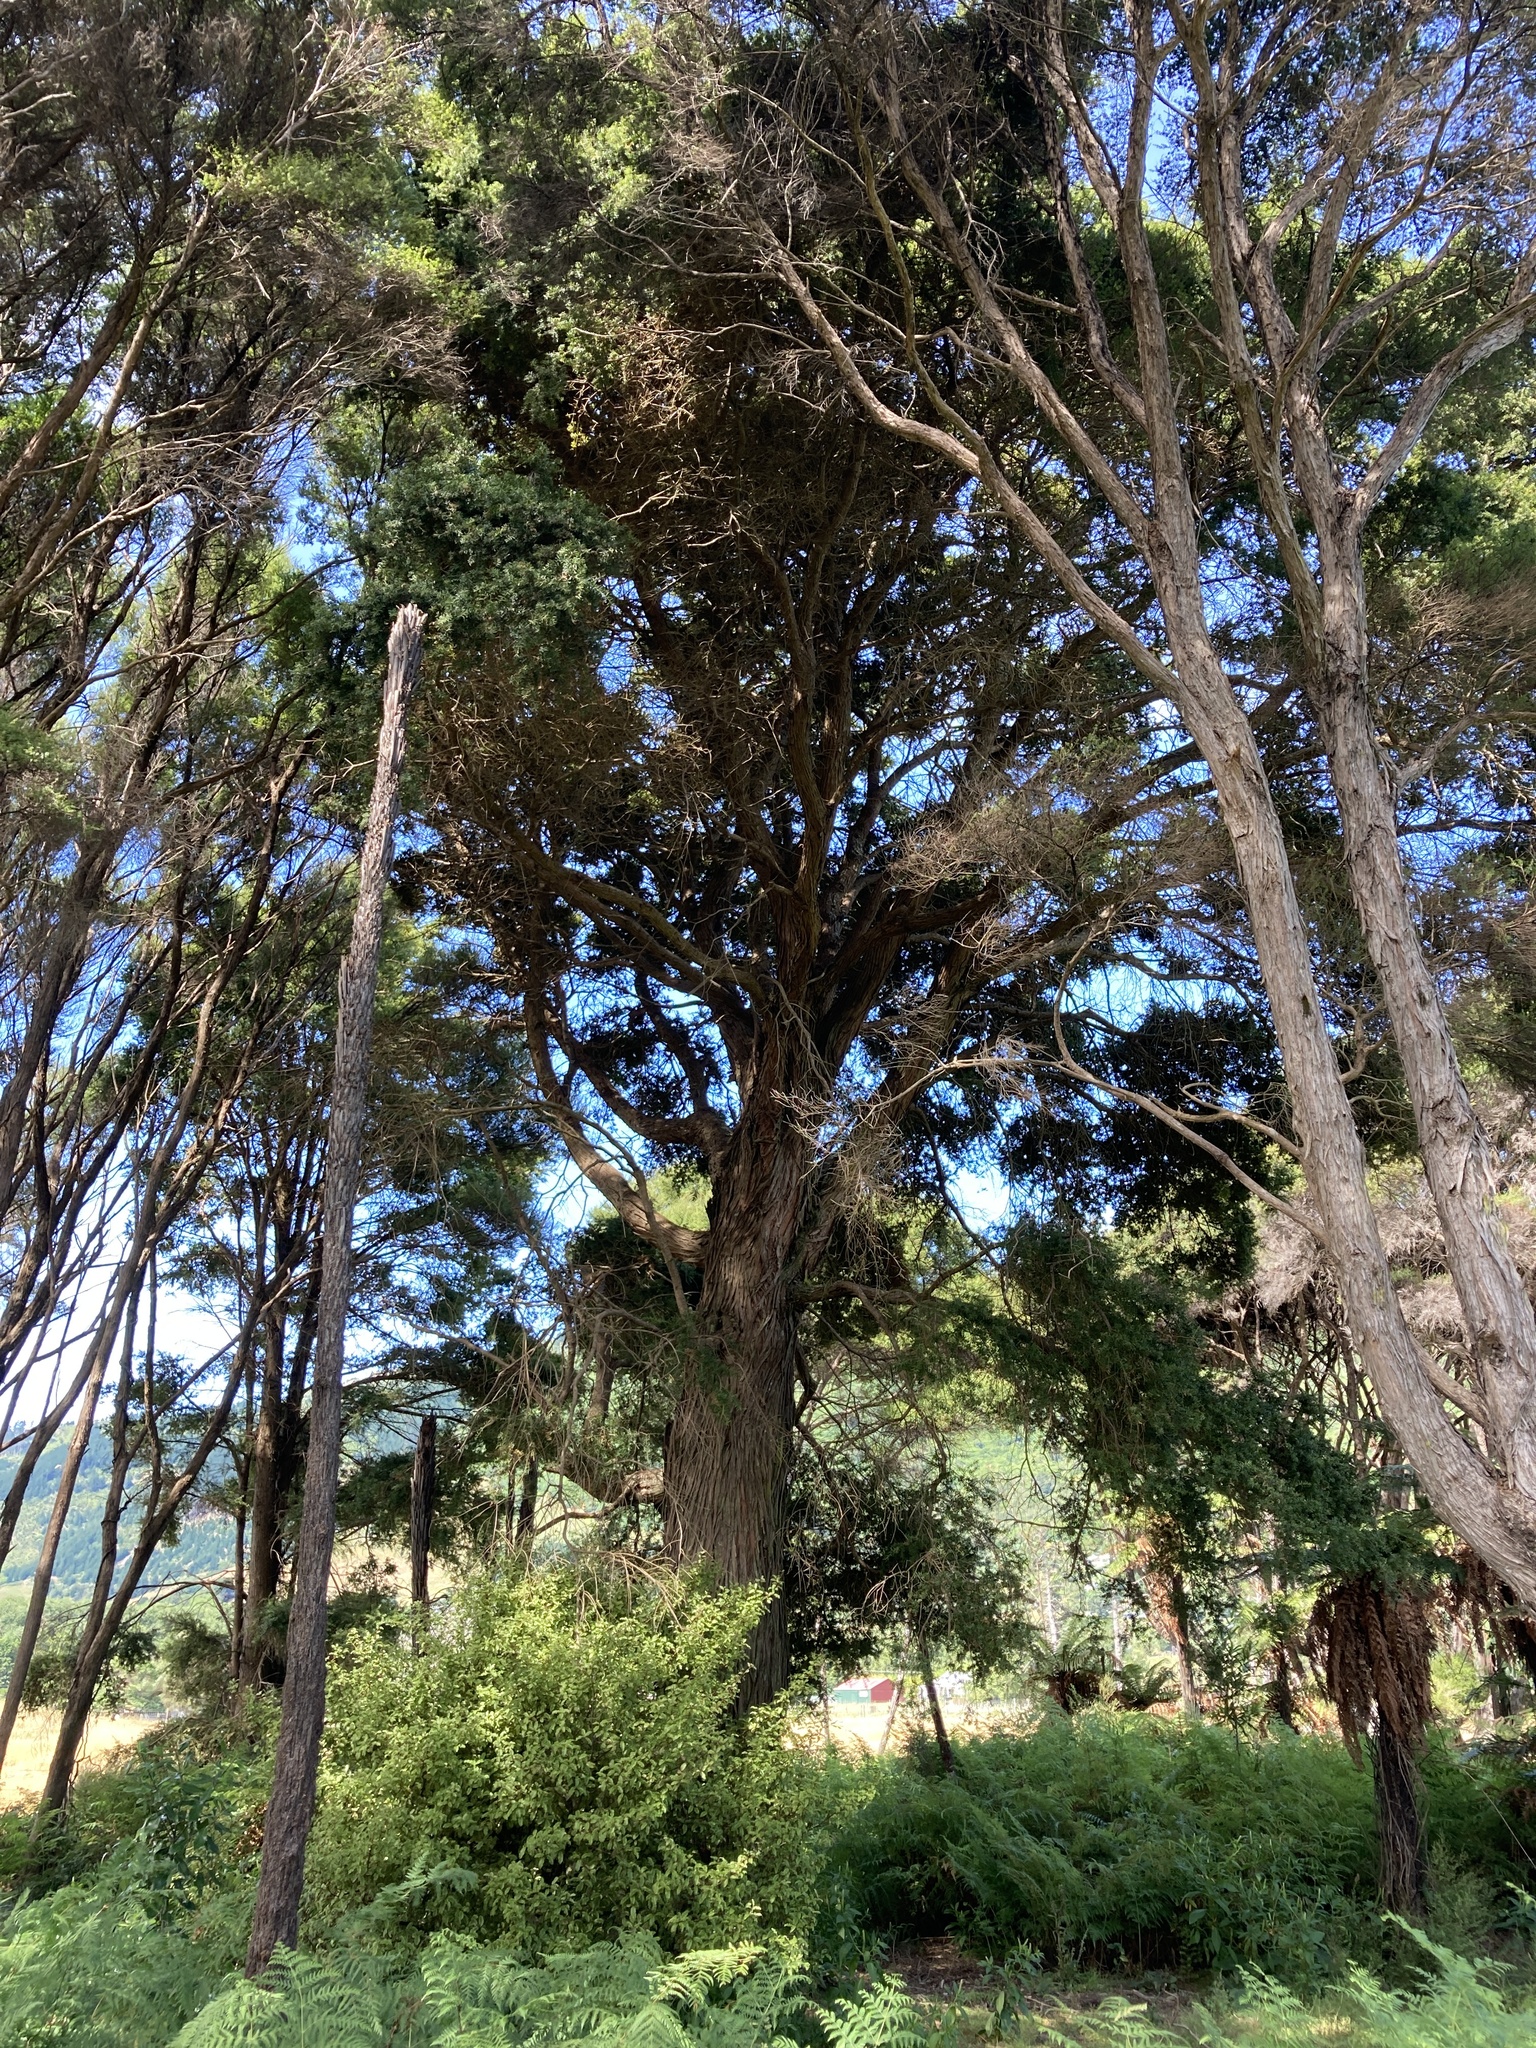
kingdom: Plantae
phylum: Tracheophyta
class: Pinopsida
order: Pinales
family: Podocarpaceae
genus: Podocarpus
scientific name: Podocarpus totara
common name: Totara
